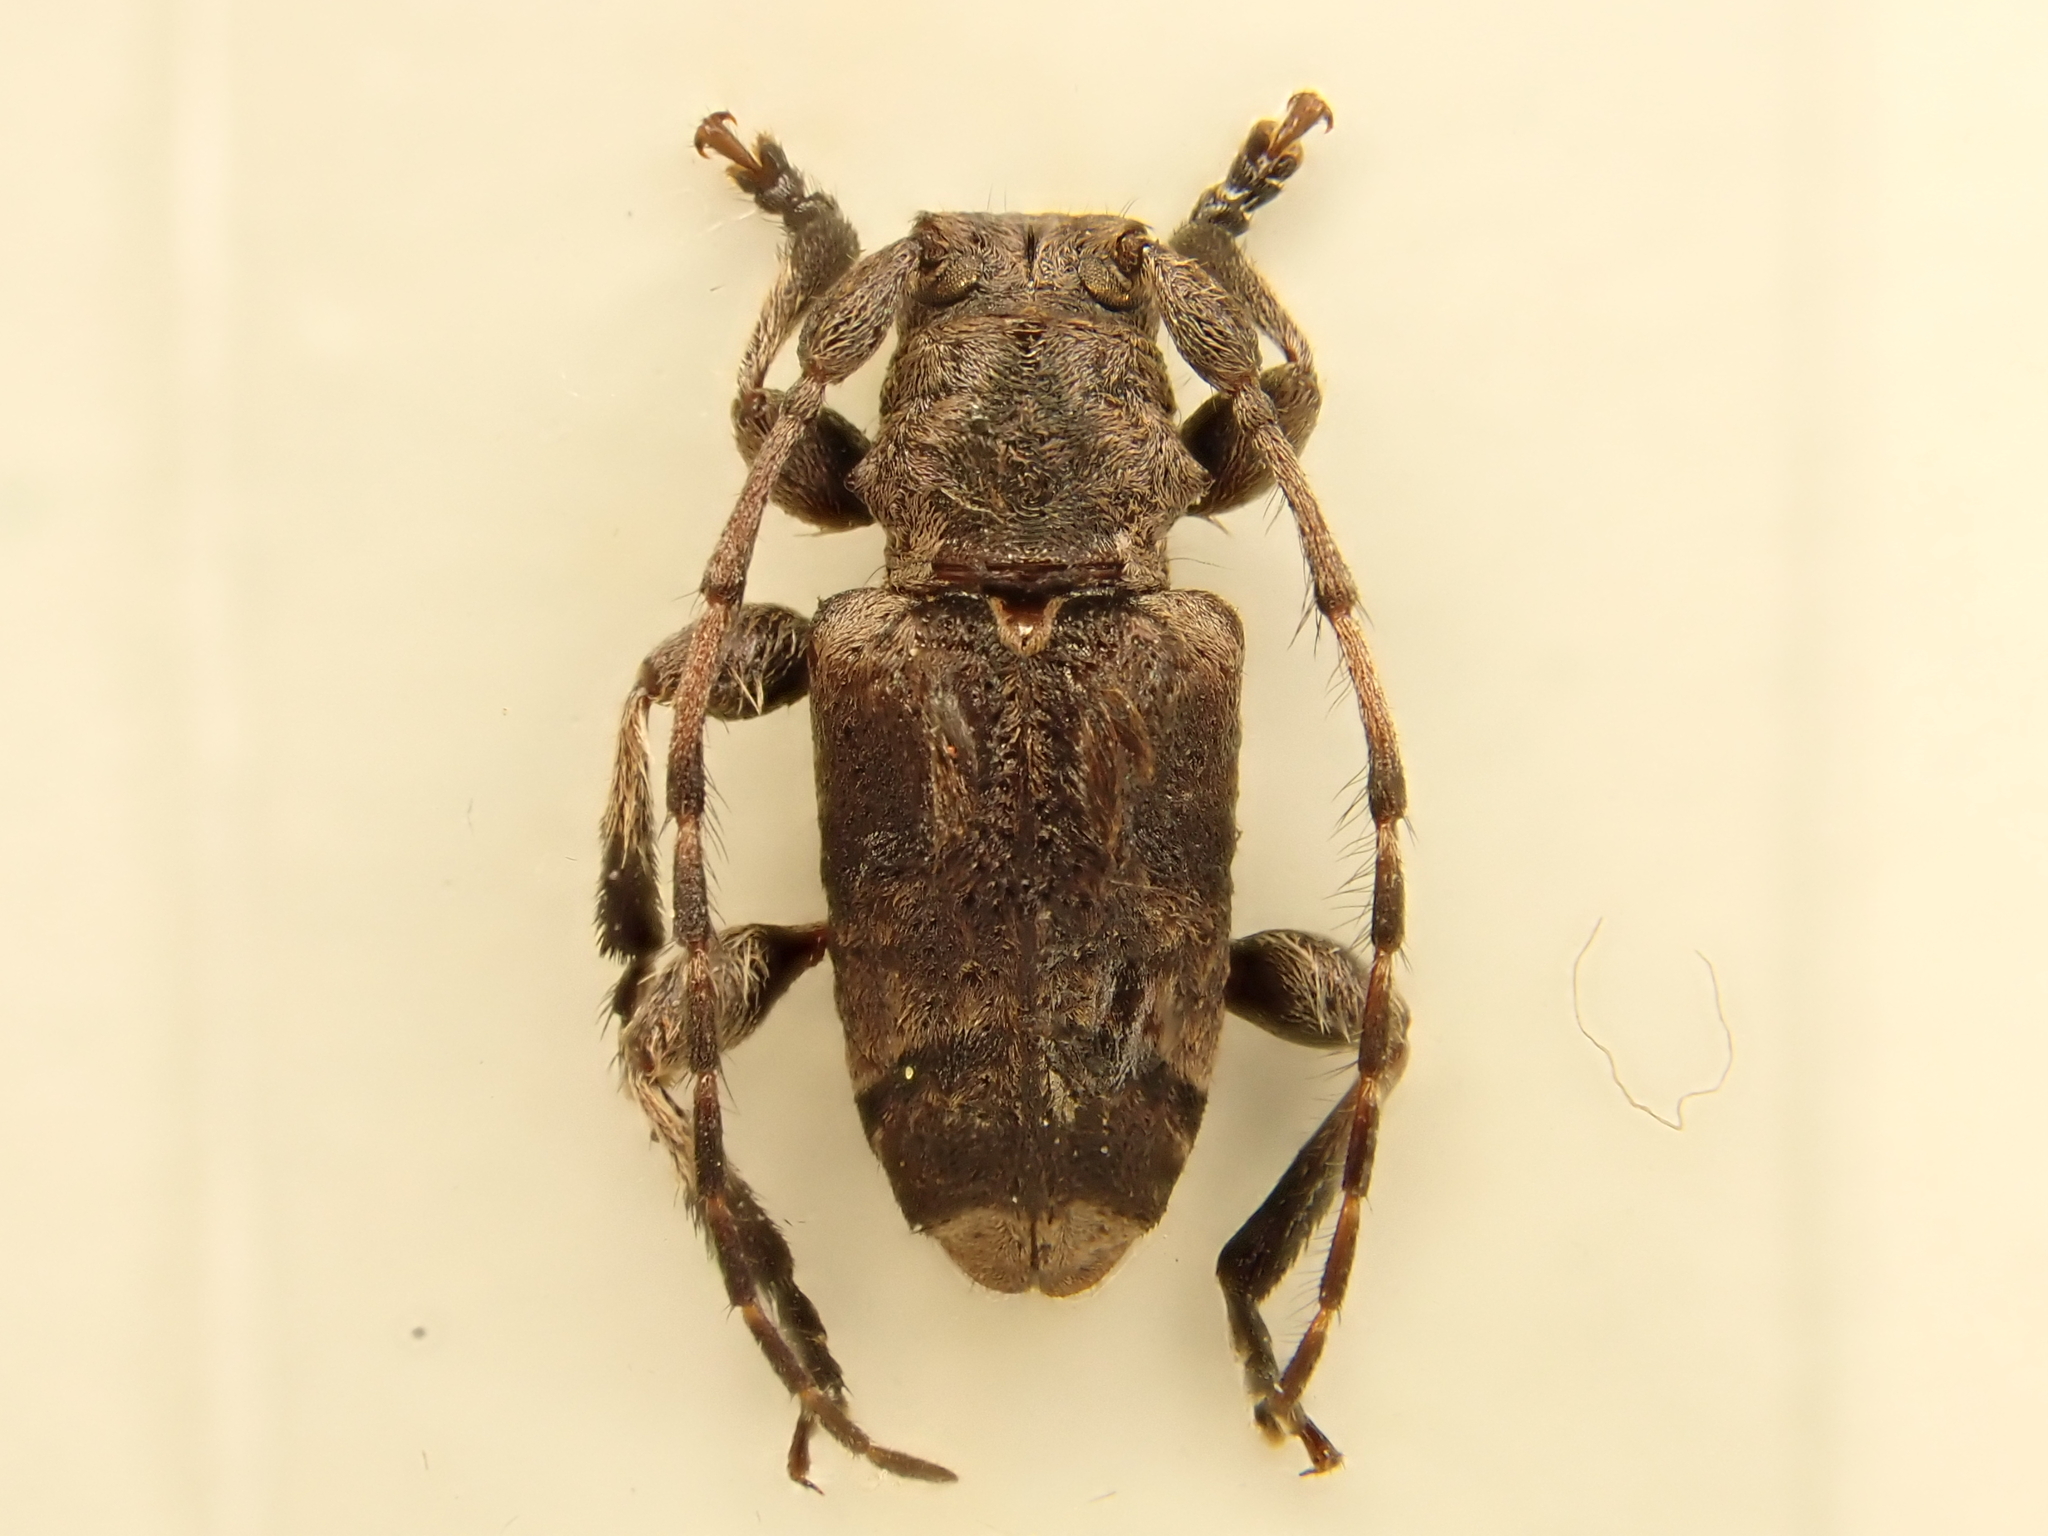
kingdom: Animalia
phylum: Arthropoda
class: Insecta
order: Coleoptera
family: Cerambycidae
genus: Hybolasius
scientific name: Hybolasius cristus
